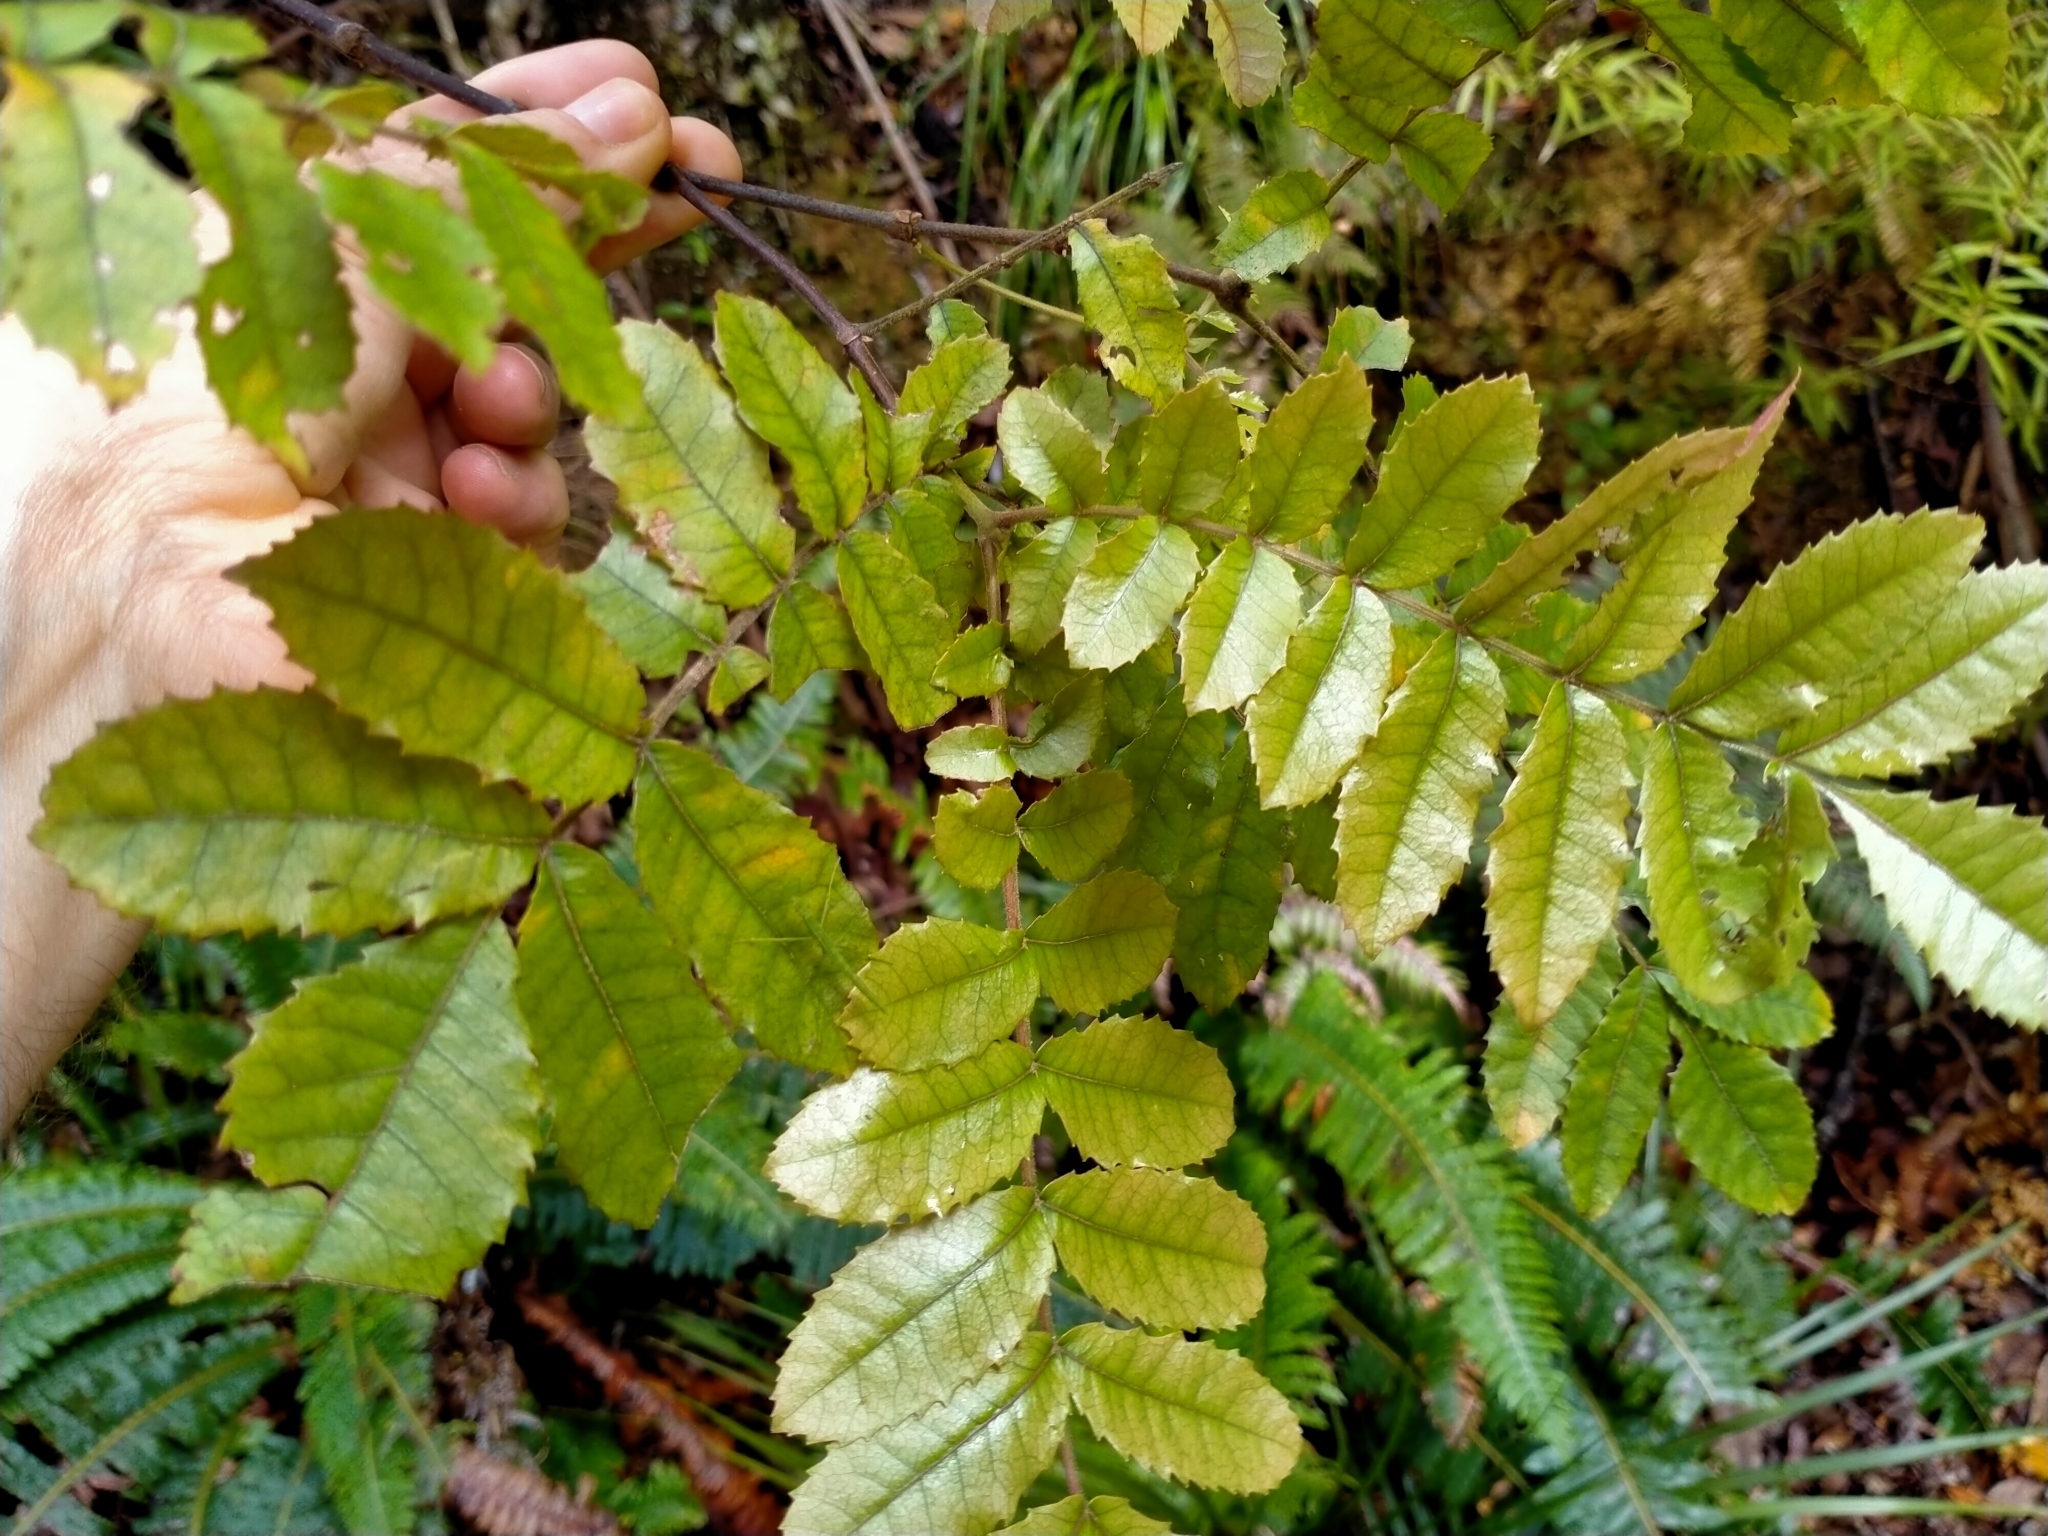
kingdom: Plantae
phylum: Tracheophyta
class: Magnoliopsida
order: Oxalidales
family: Cunoniaceae
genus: Ackama
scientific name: Ackama rosifolia
